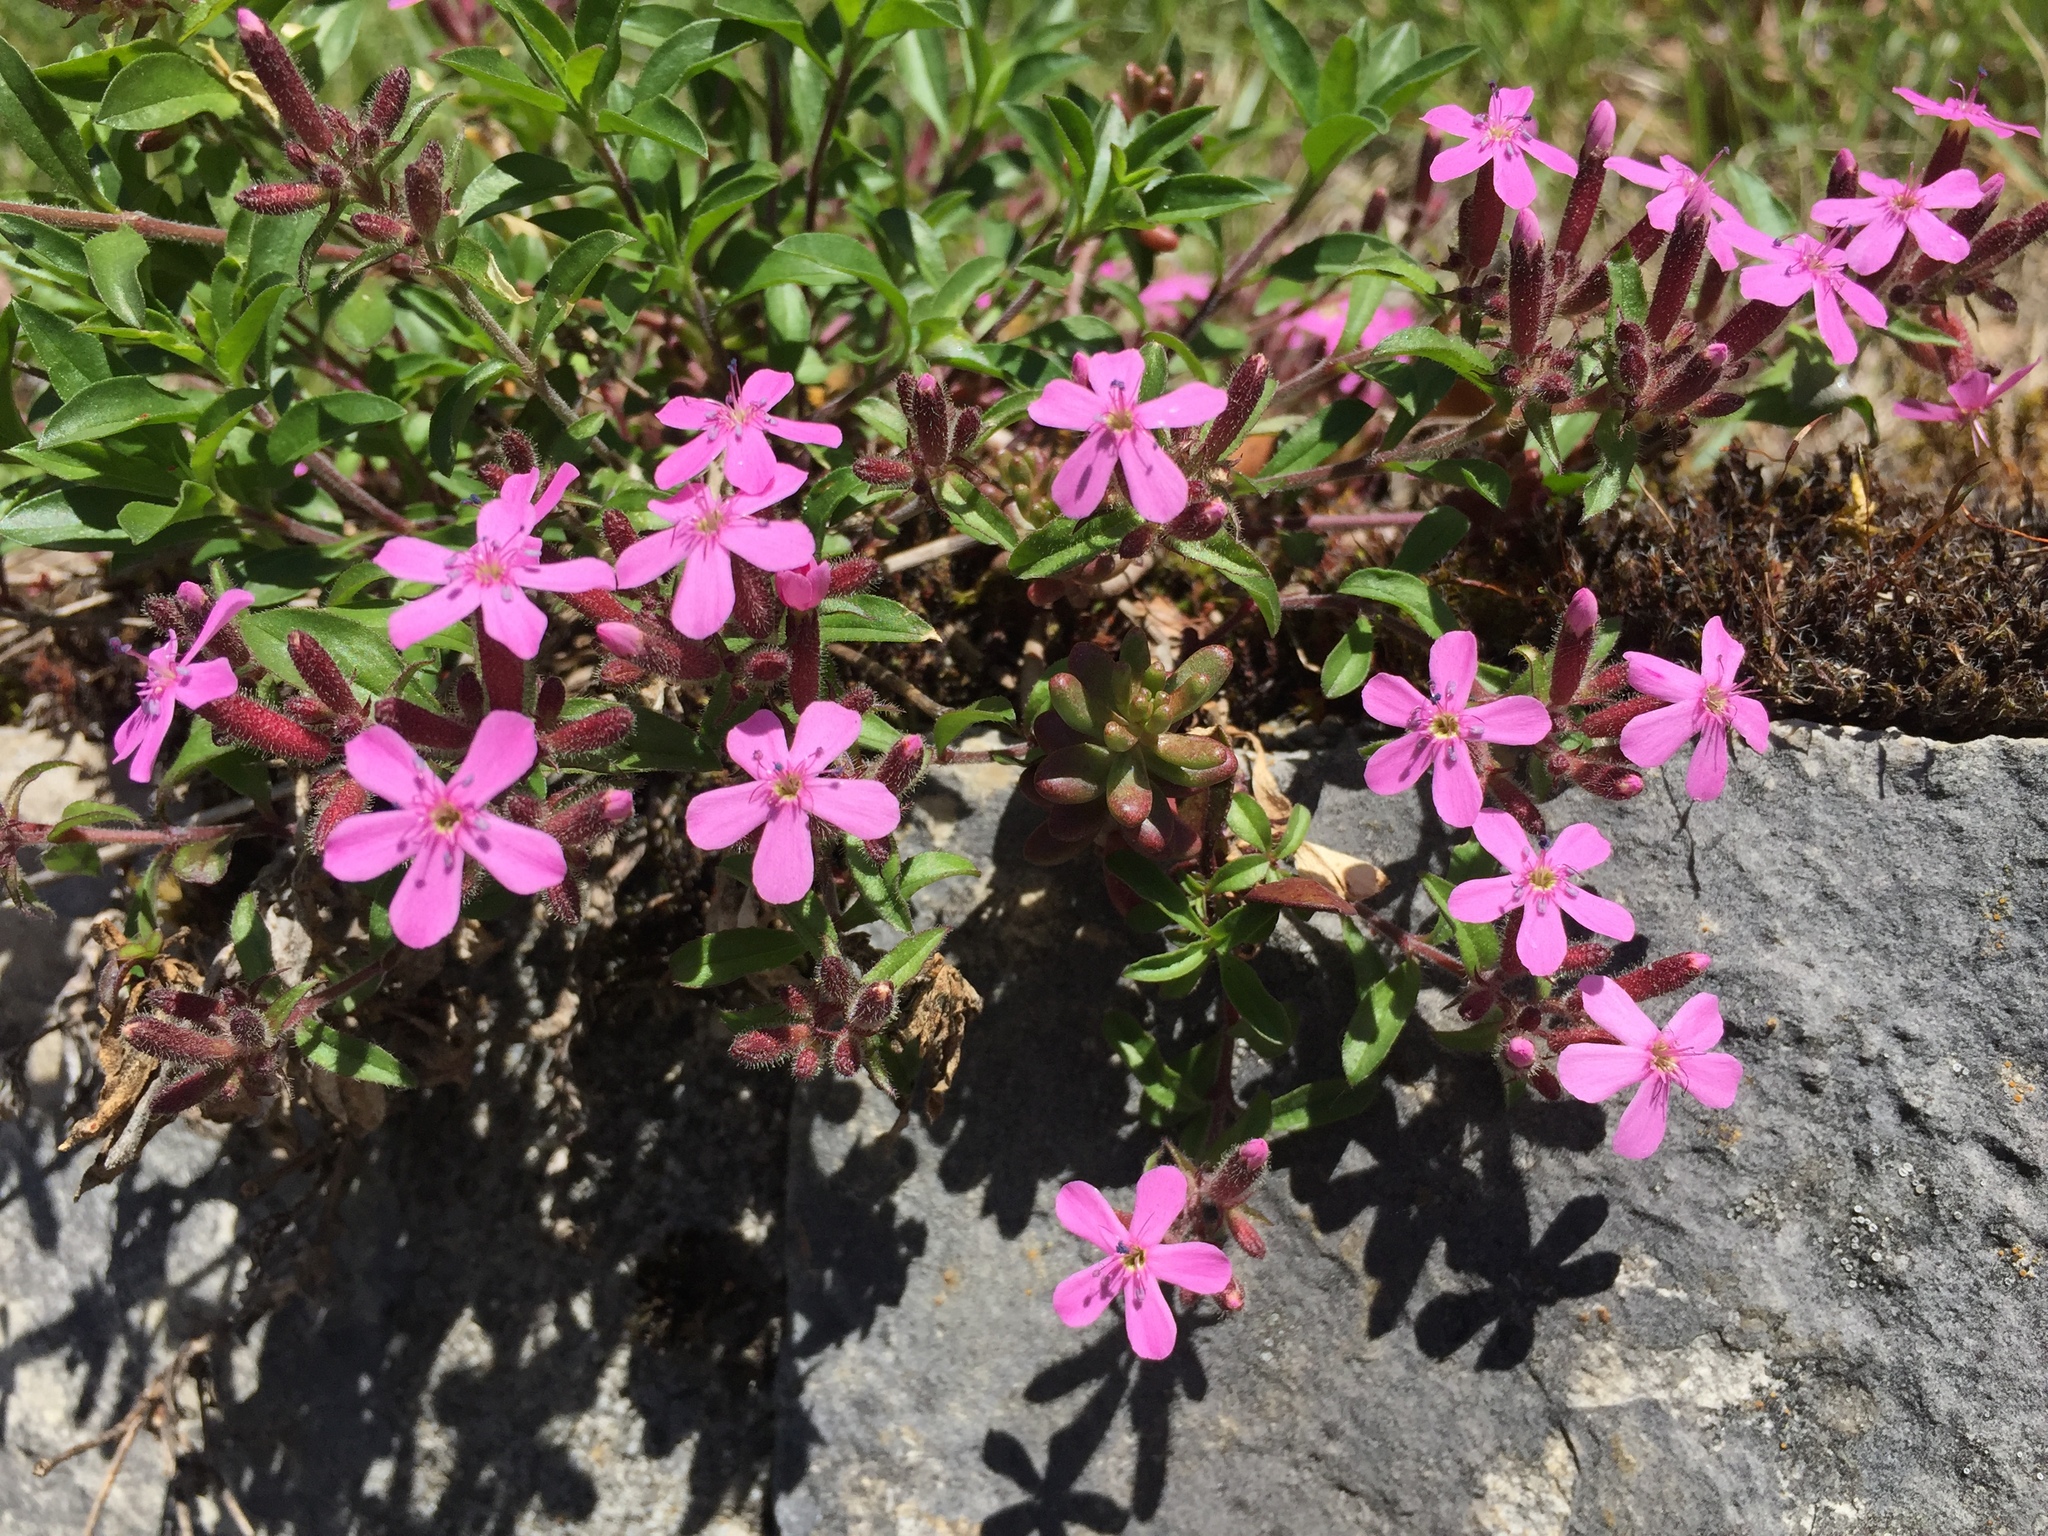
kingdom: Plantae
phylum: Tracheophyta
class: Magnoliopsida
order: Caryophyllales
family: Caryophyllaceae
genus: Saponaria
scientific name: Saponaria ocymoides
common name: Rock soapwort
